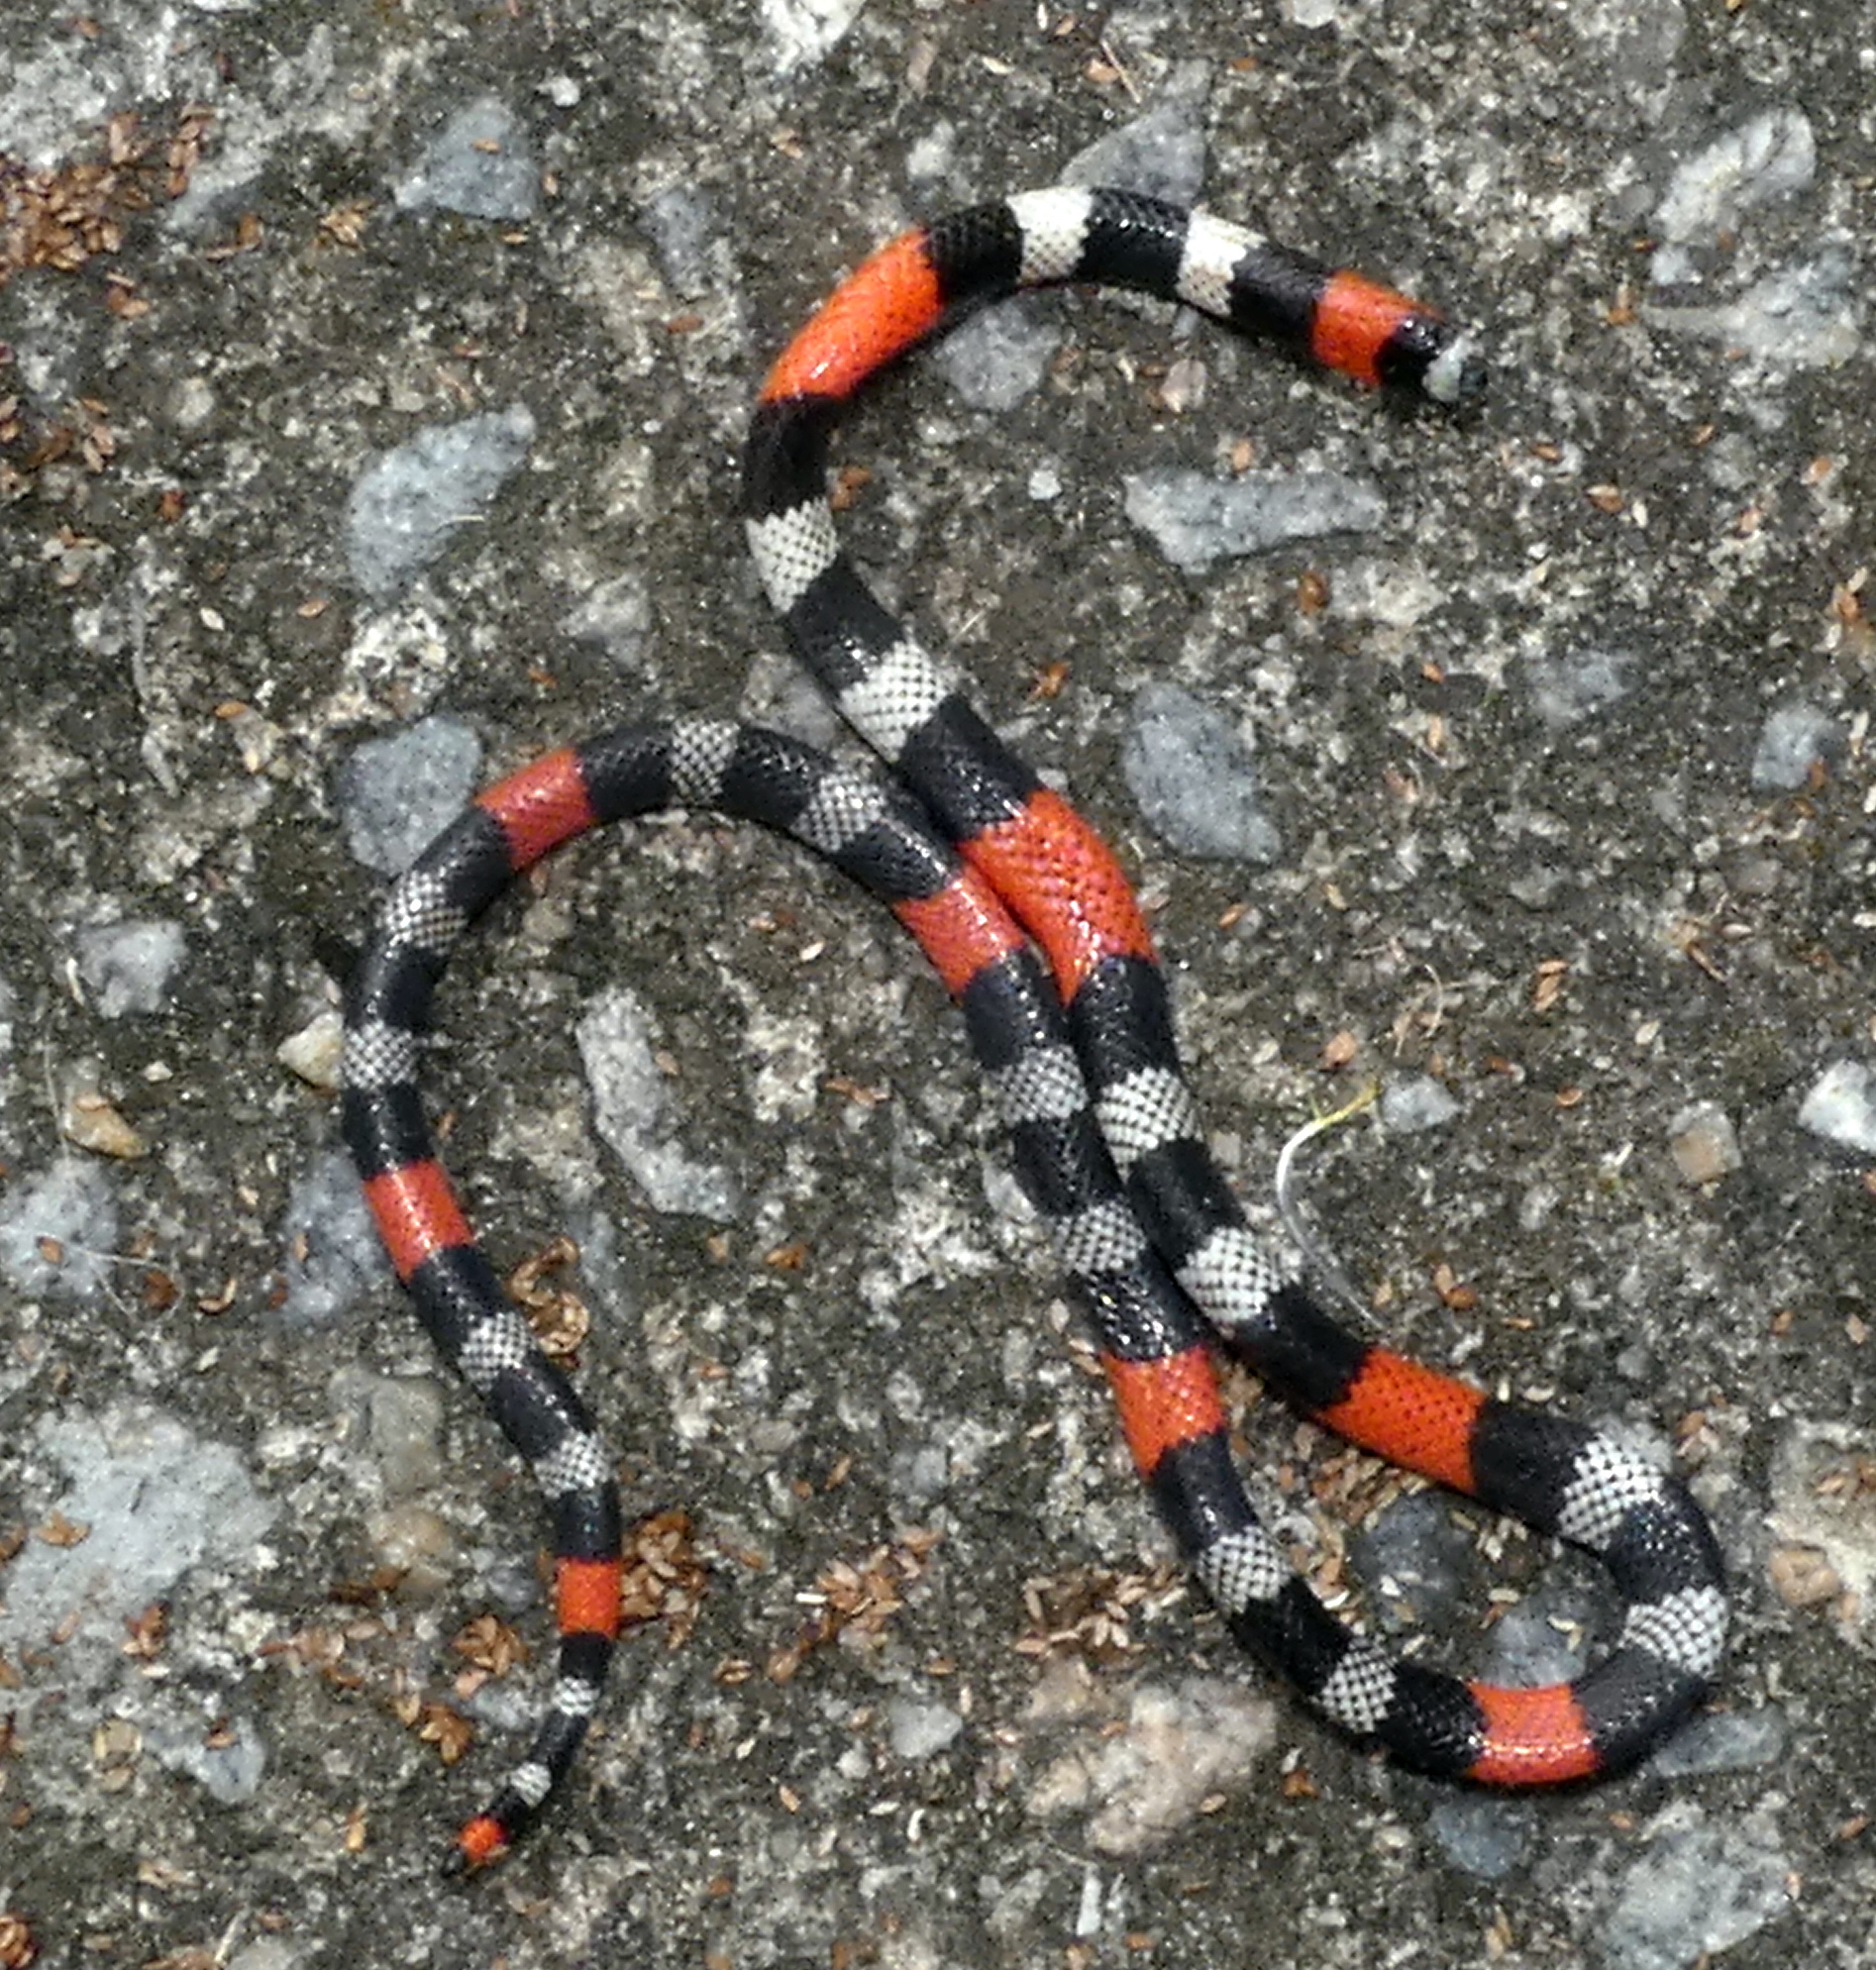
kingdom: Animalia
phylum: Chordata
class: Squamata
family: Elapidae
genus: Micrurus
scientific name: Micrurus lemniscatus
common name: South american coral snake
